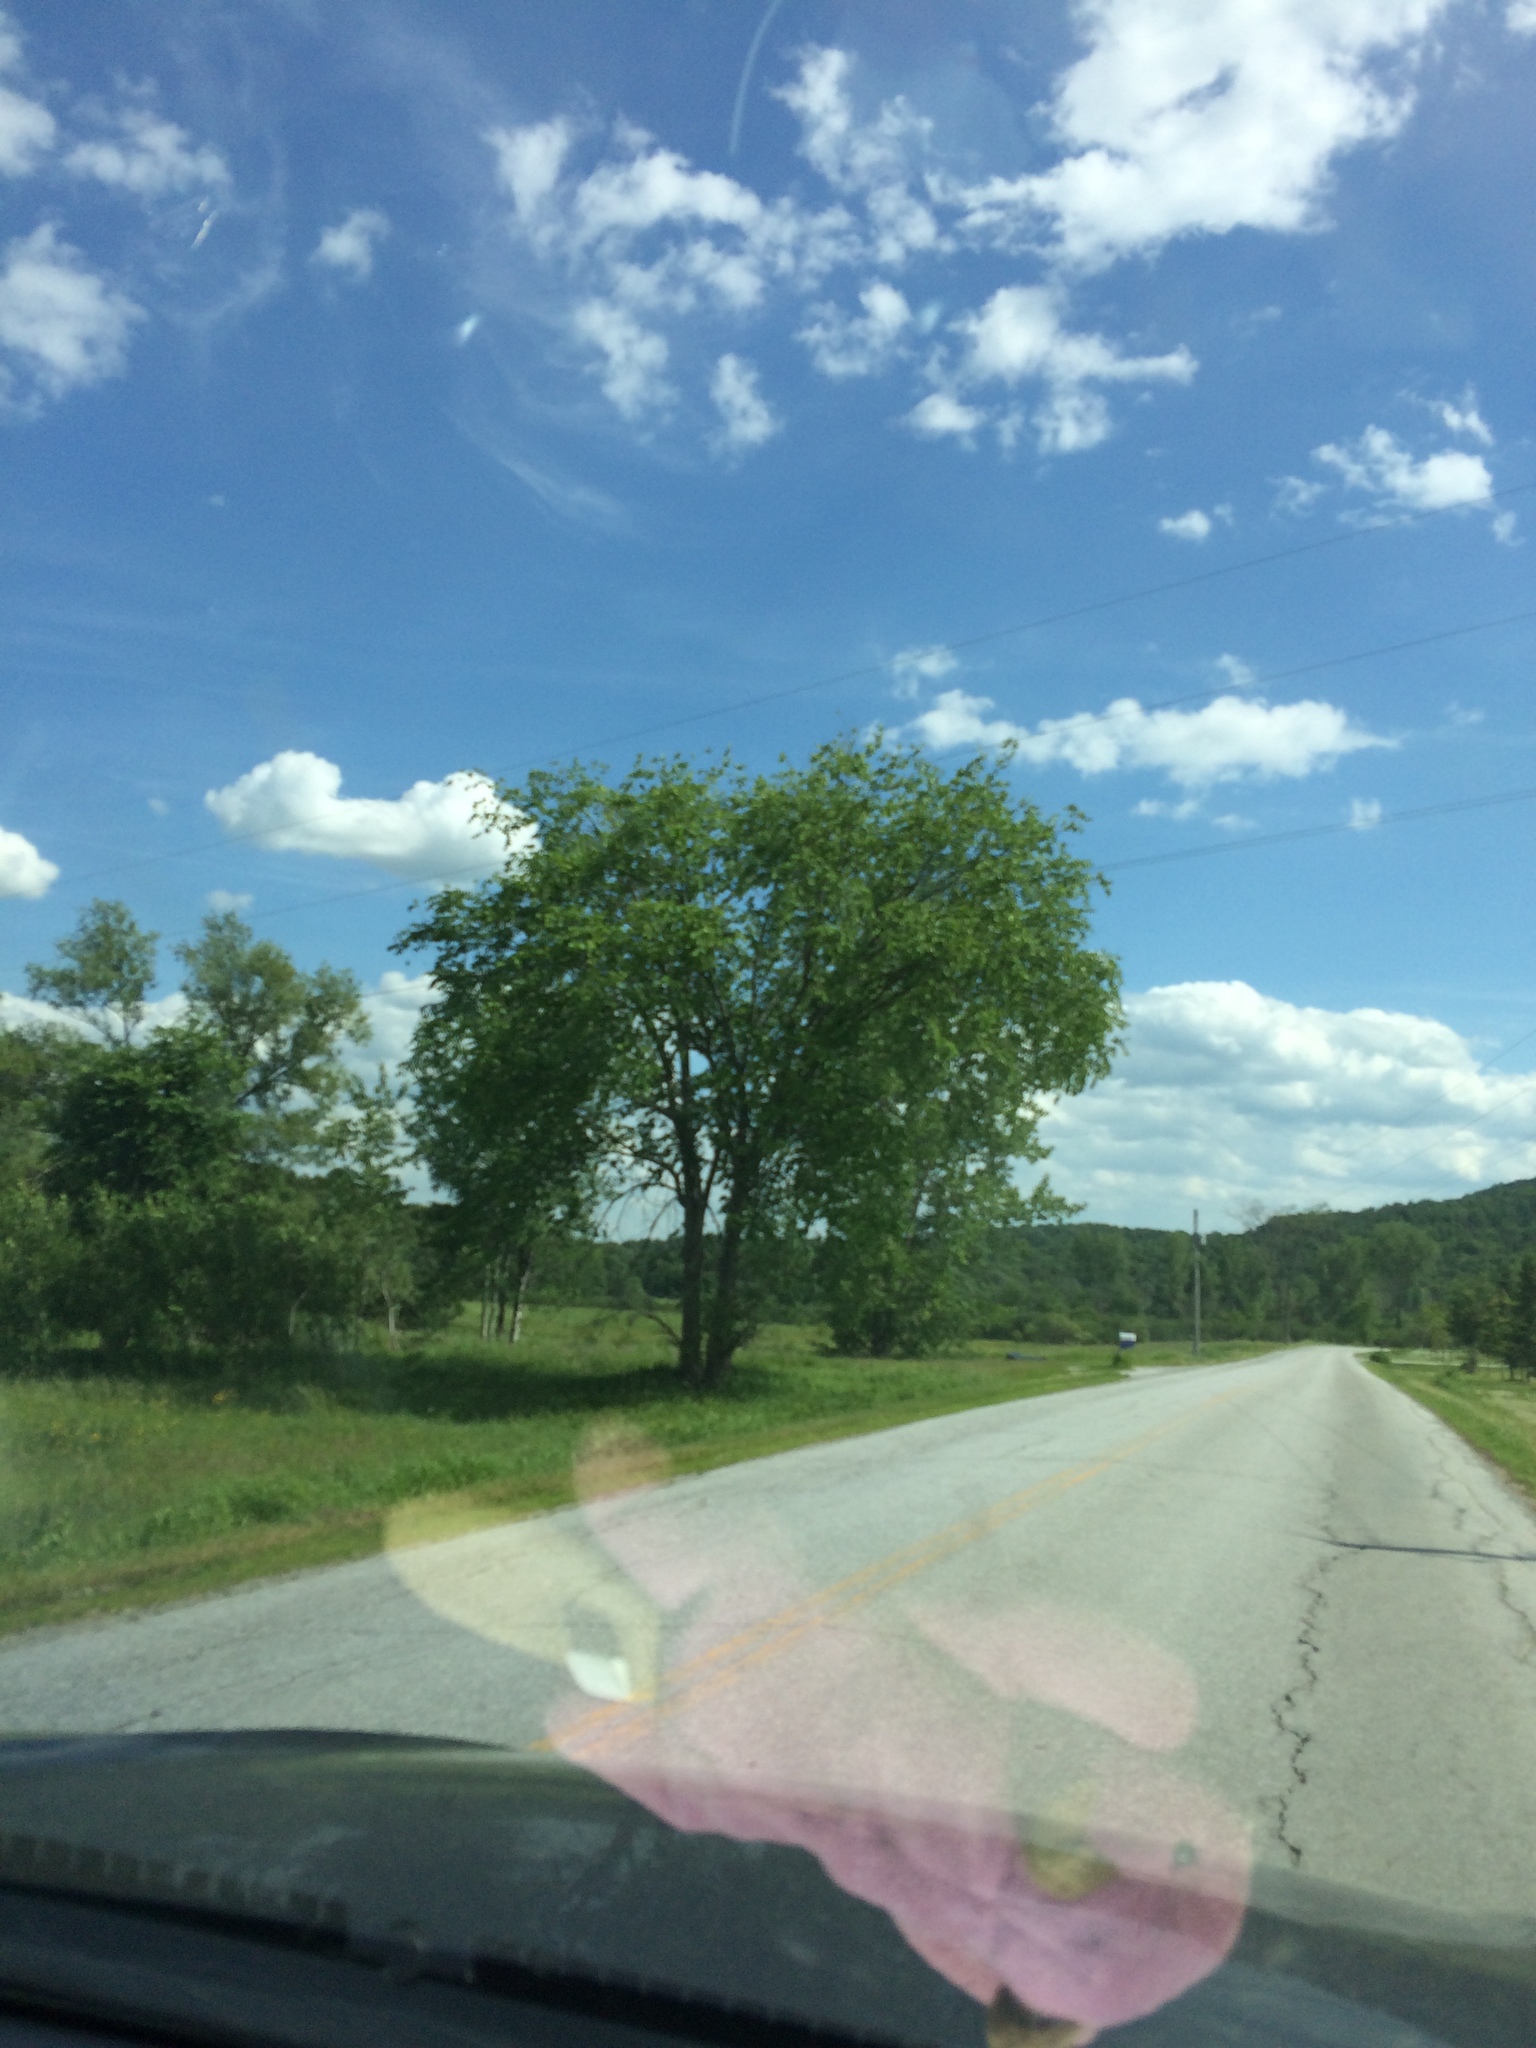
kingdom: Plantae
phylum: Tracheophyta
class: Magnoliopsida
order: Rosales
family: Ulmaceae
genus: Ulmus
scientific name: Ulmus americana
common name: American elm
